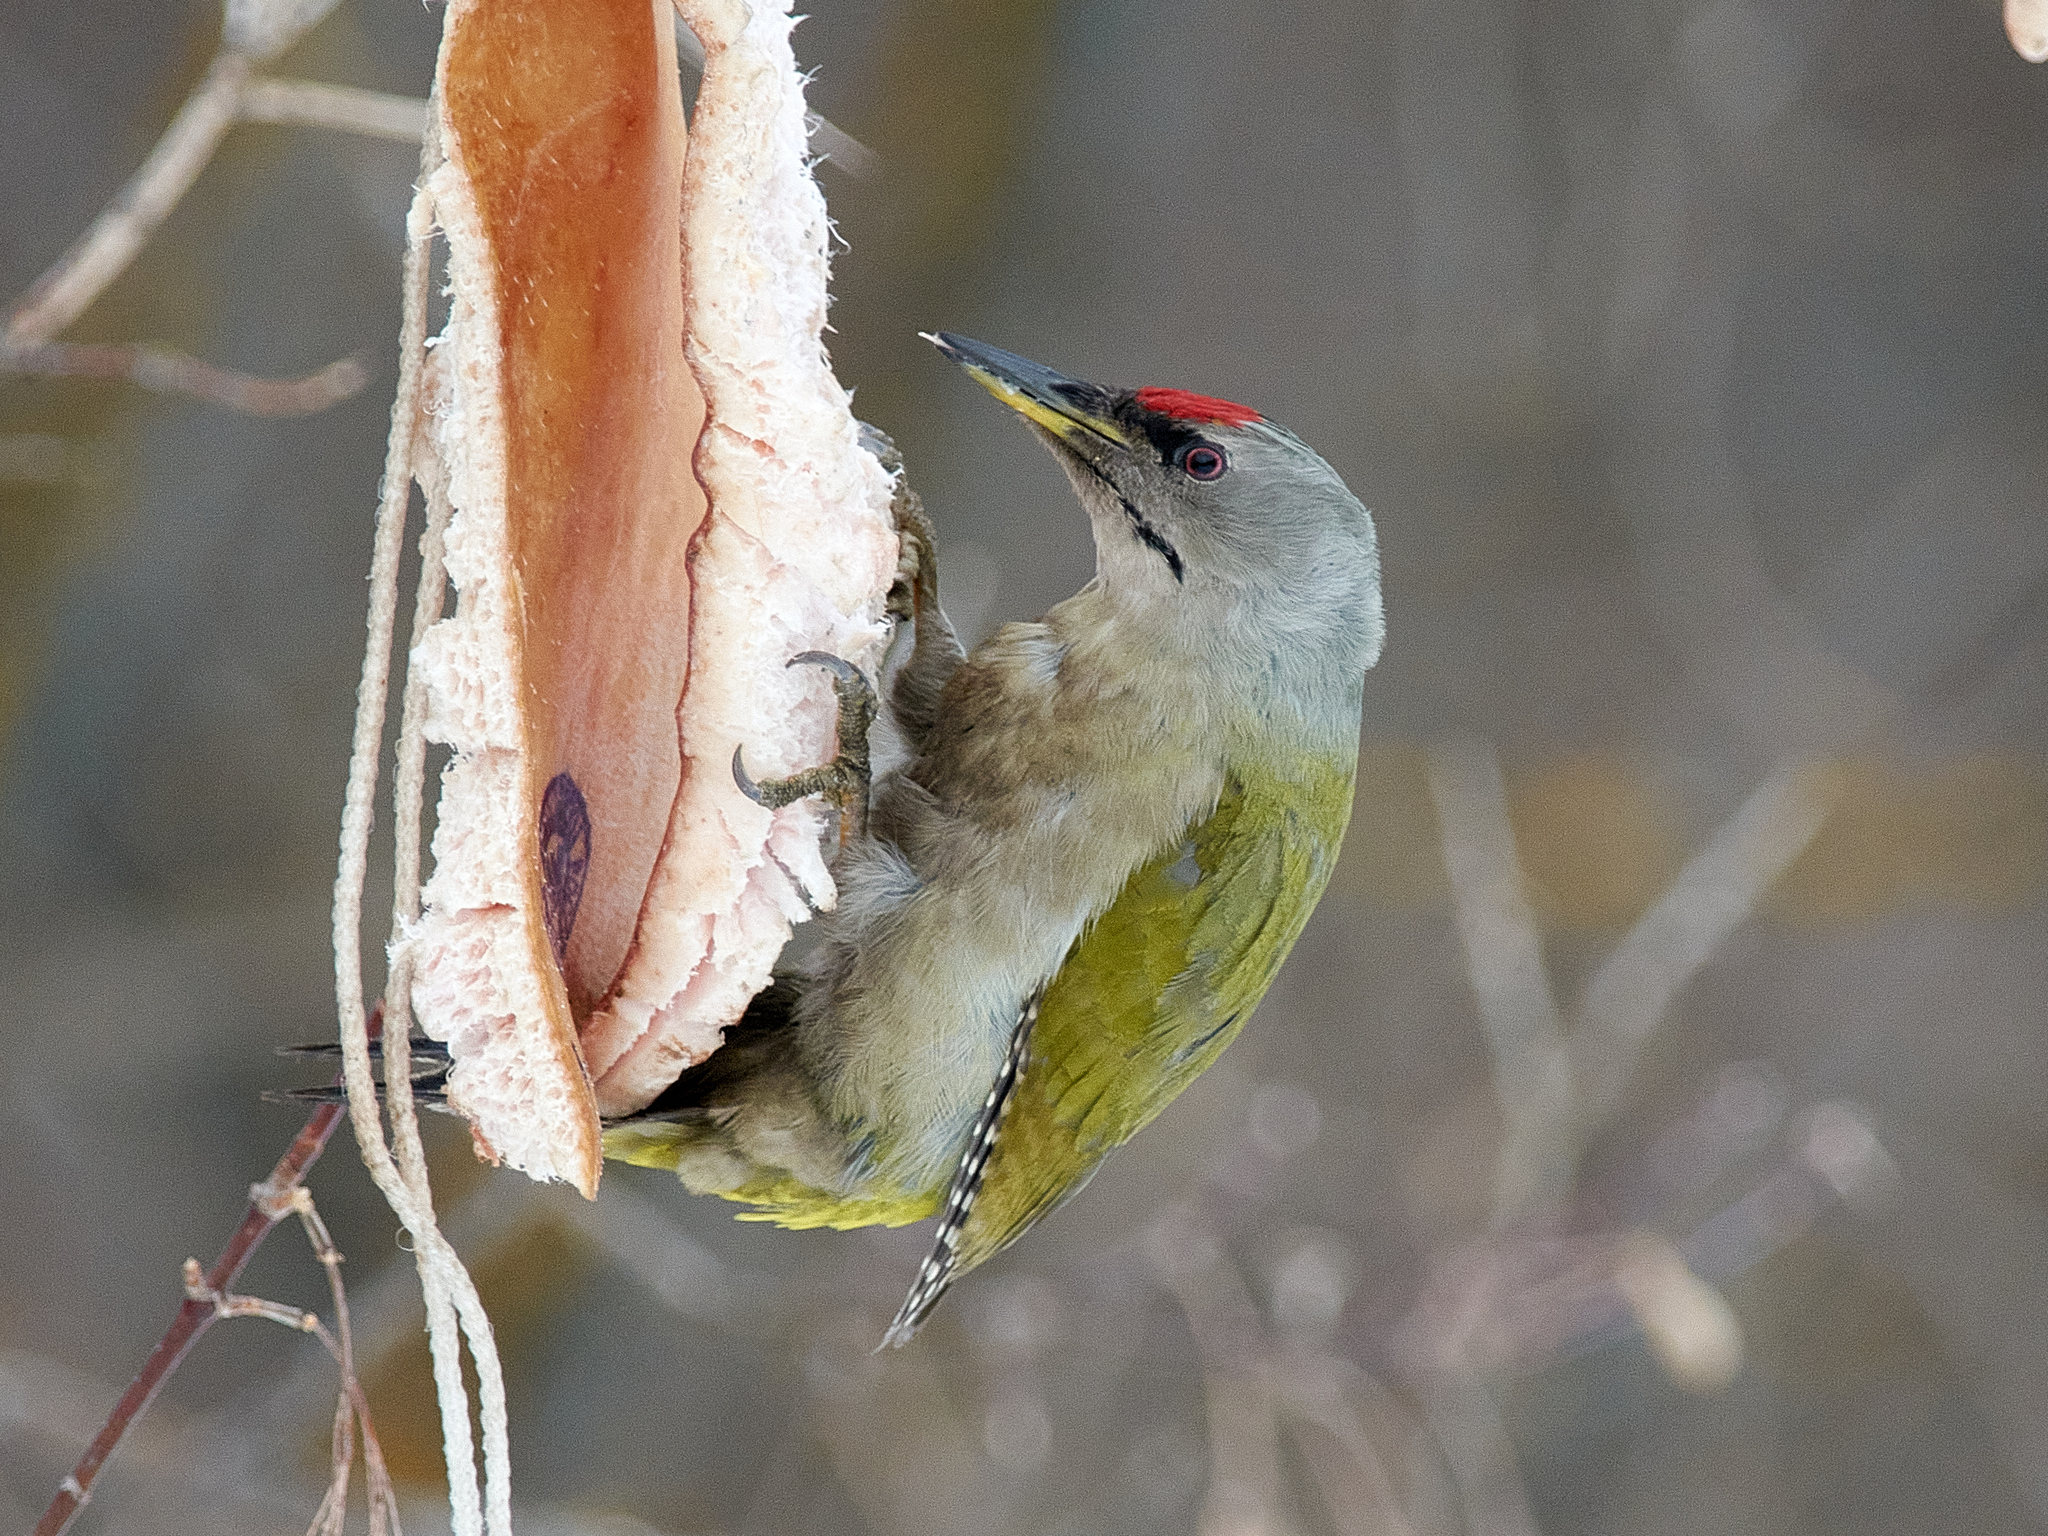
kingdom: Animalia
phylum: Chordata
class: Aves
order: Piciformes
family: Picidae
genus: Picus
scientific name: Picus canus
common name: Grey-headed woodpecker
